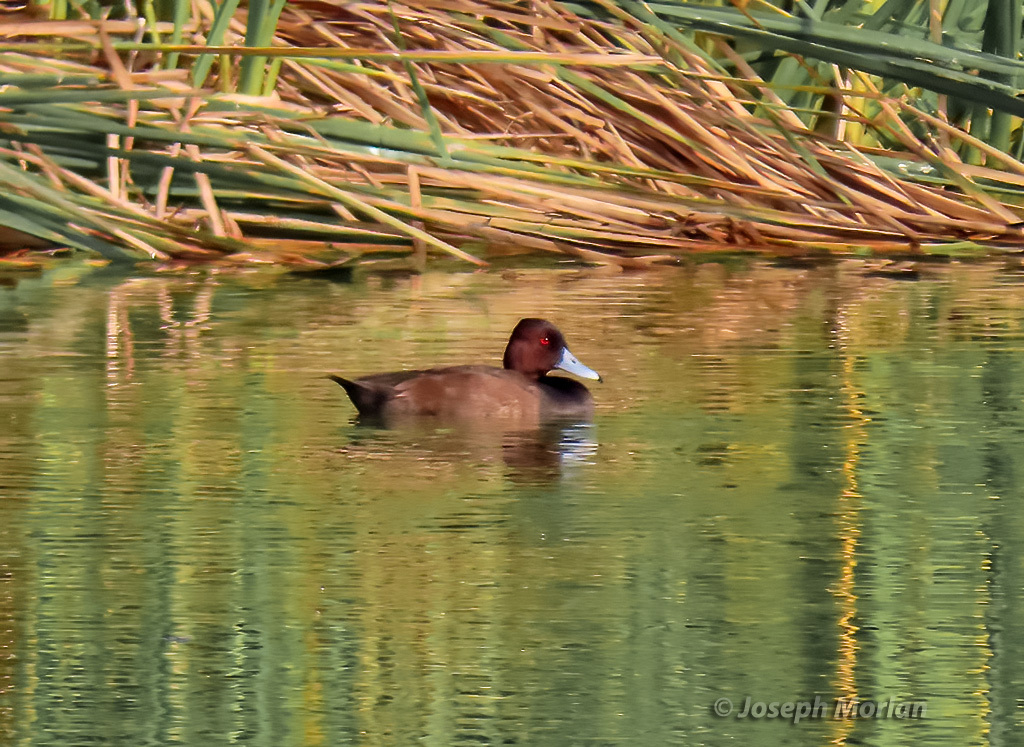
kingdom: Animalia
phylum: Chordata
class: Aves
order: Anseriformes
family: Anatidae
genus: Netta
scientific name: Netta erythrophthalma
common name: Southern pochard
